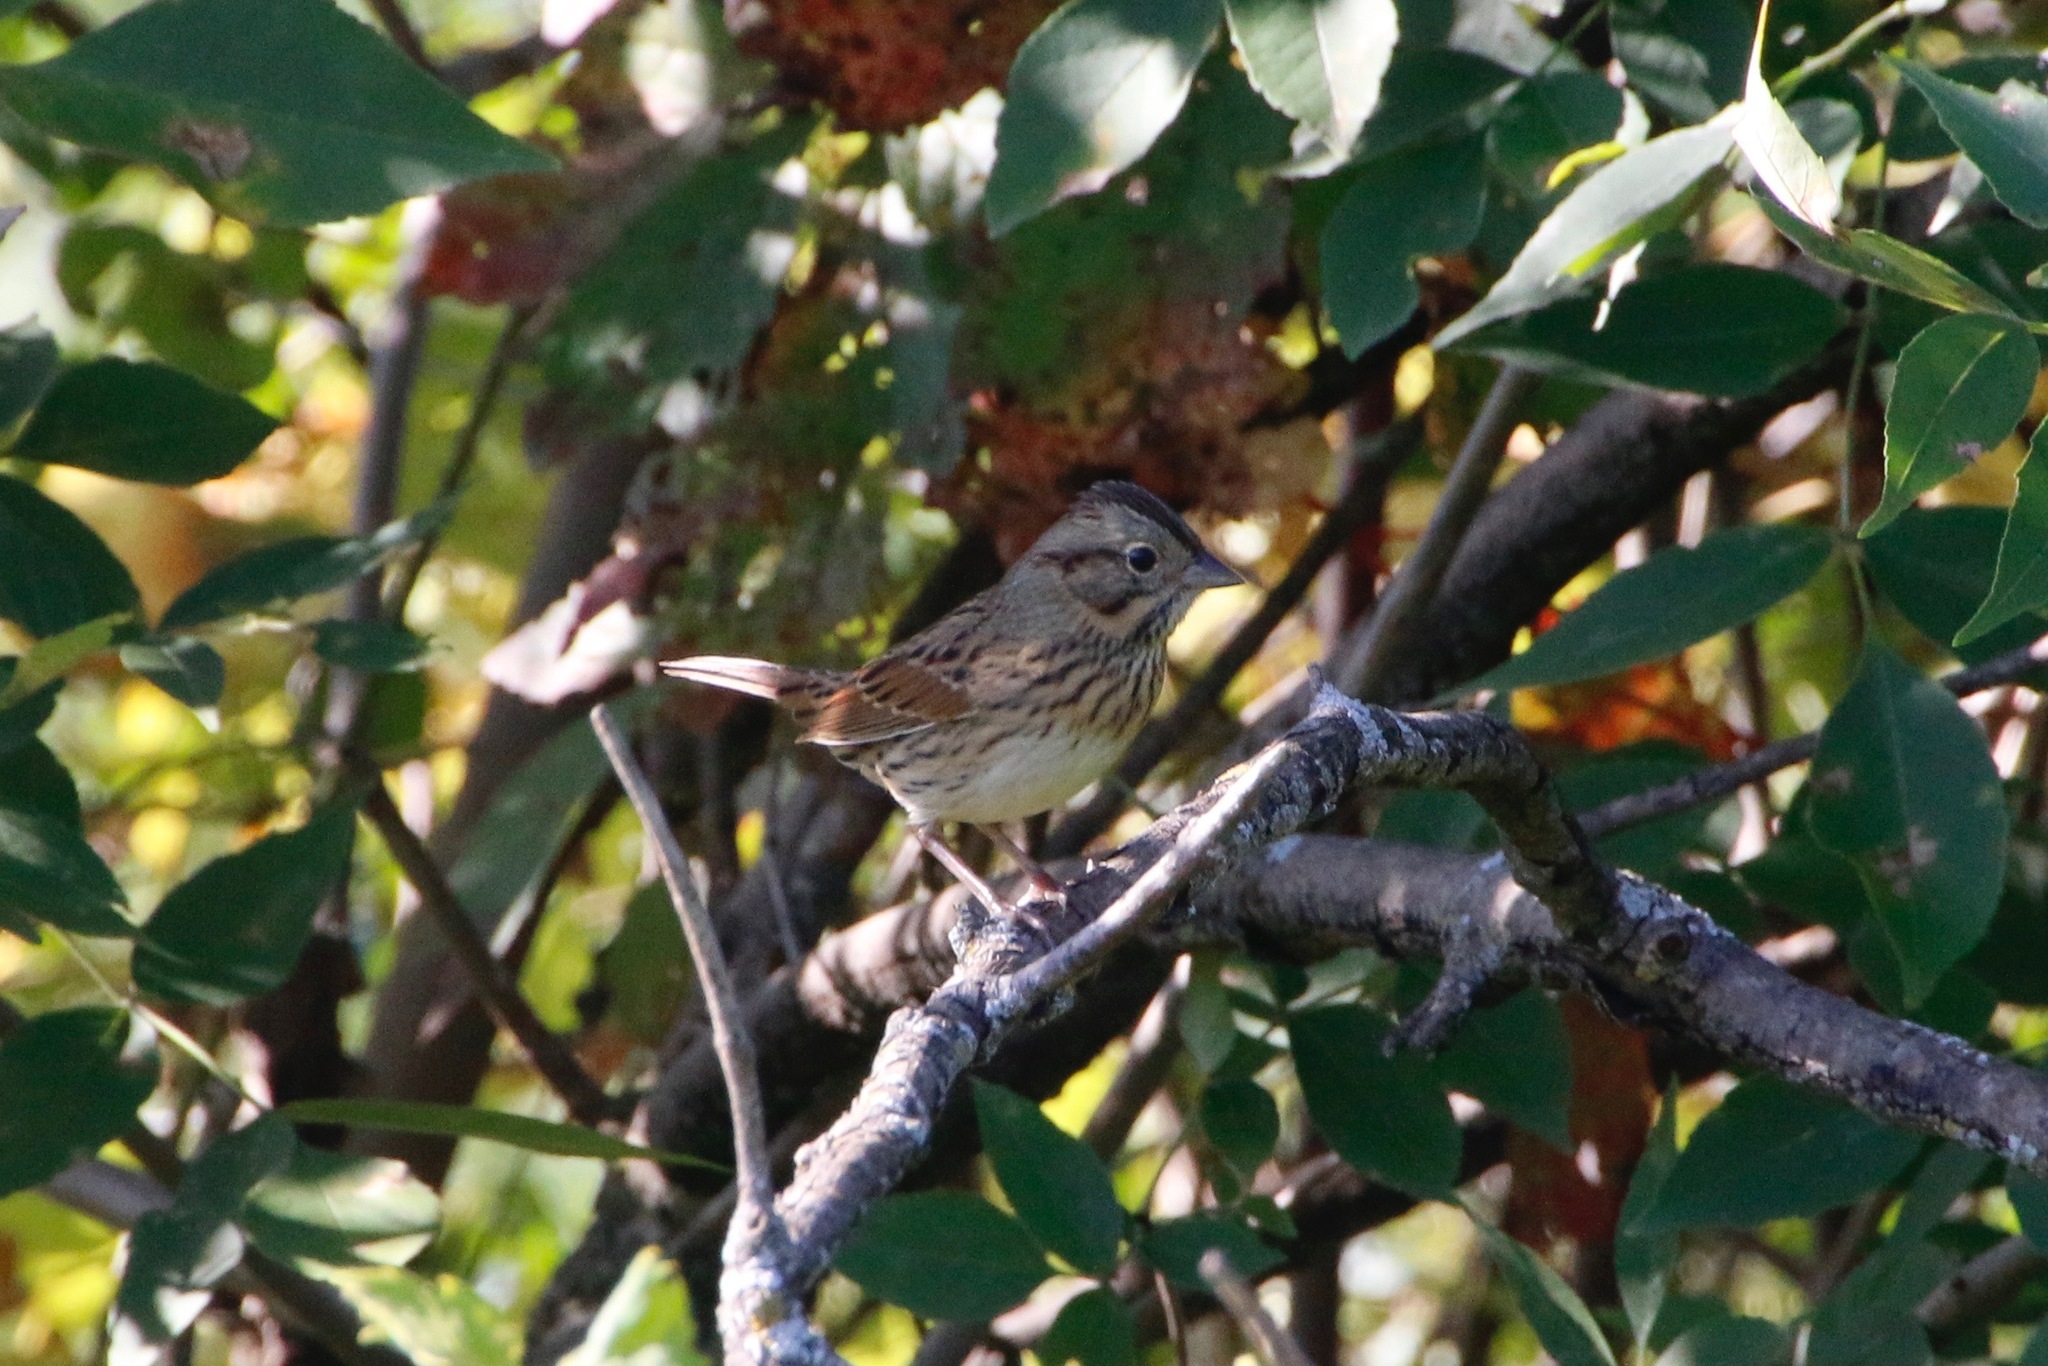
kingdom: Animalia
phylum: Chordata
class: Aves
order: Passeriformes
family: Passerellidae
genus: Melospiza
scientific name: Melospiza lincolnii
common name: Lincoln's sparrow
